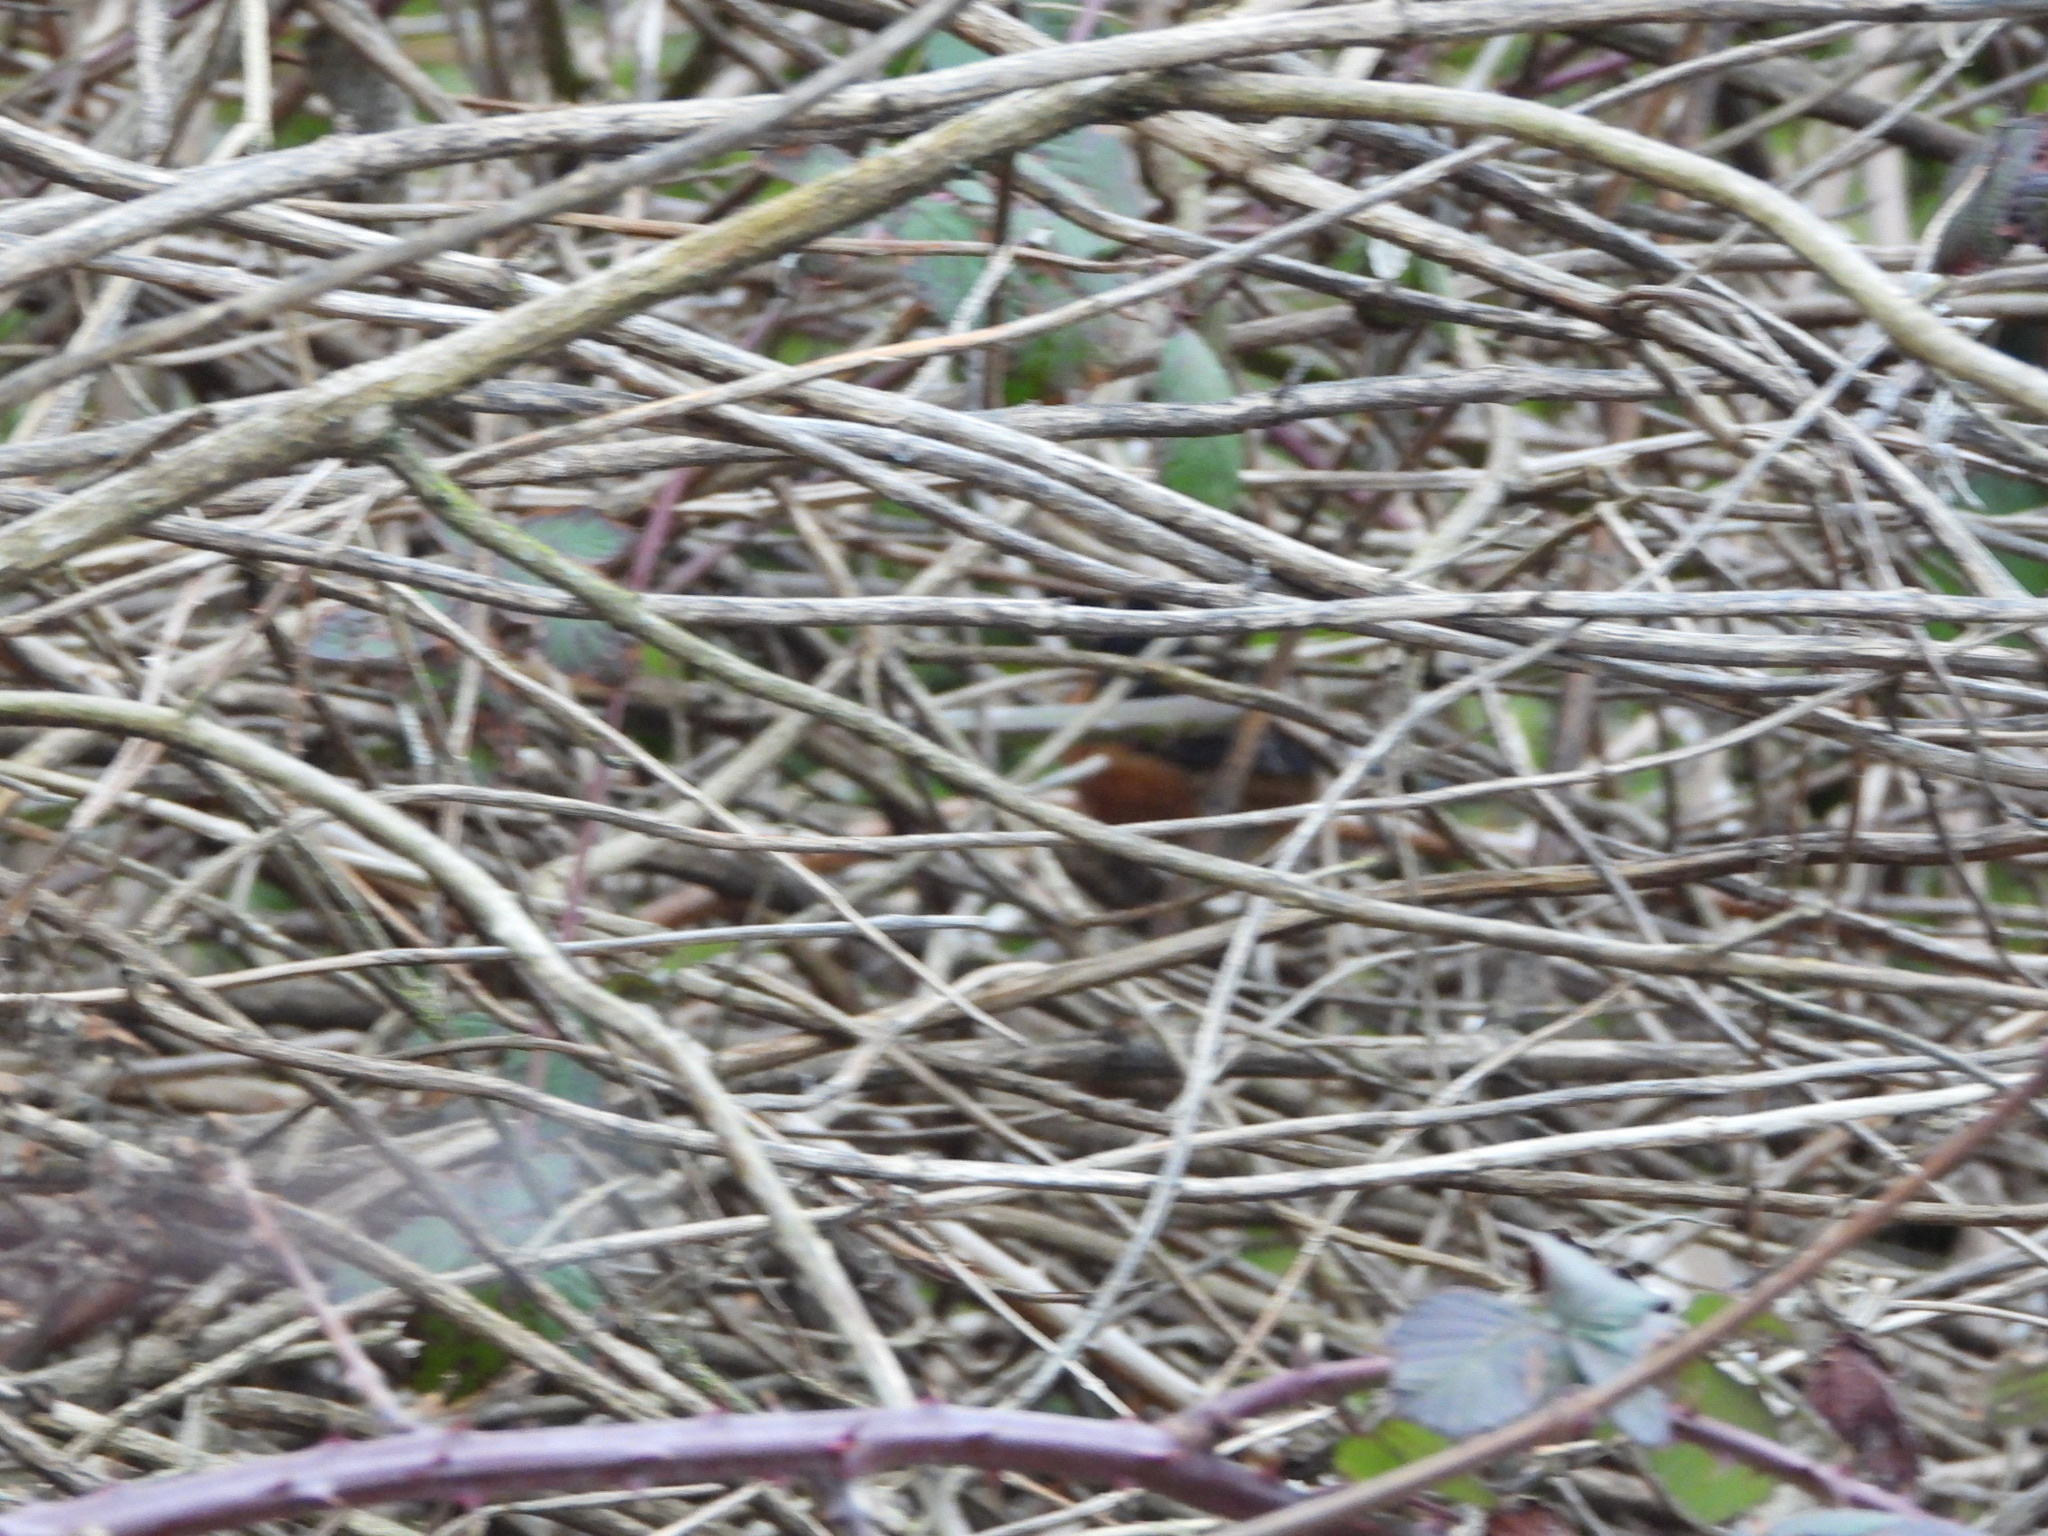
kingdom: Animalia
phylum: Chordata
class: Aves
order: Passeriformes
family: Passerellidae
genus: Pipilo
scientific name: Pipilo maculatus
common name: Spotted towhee
